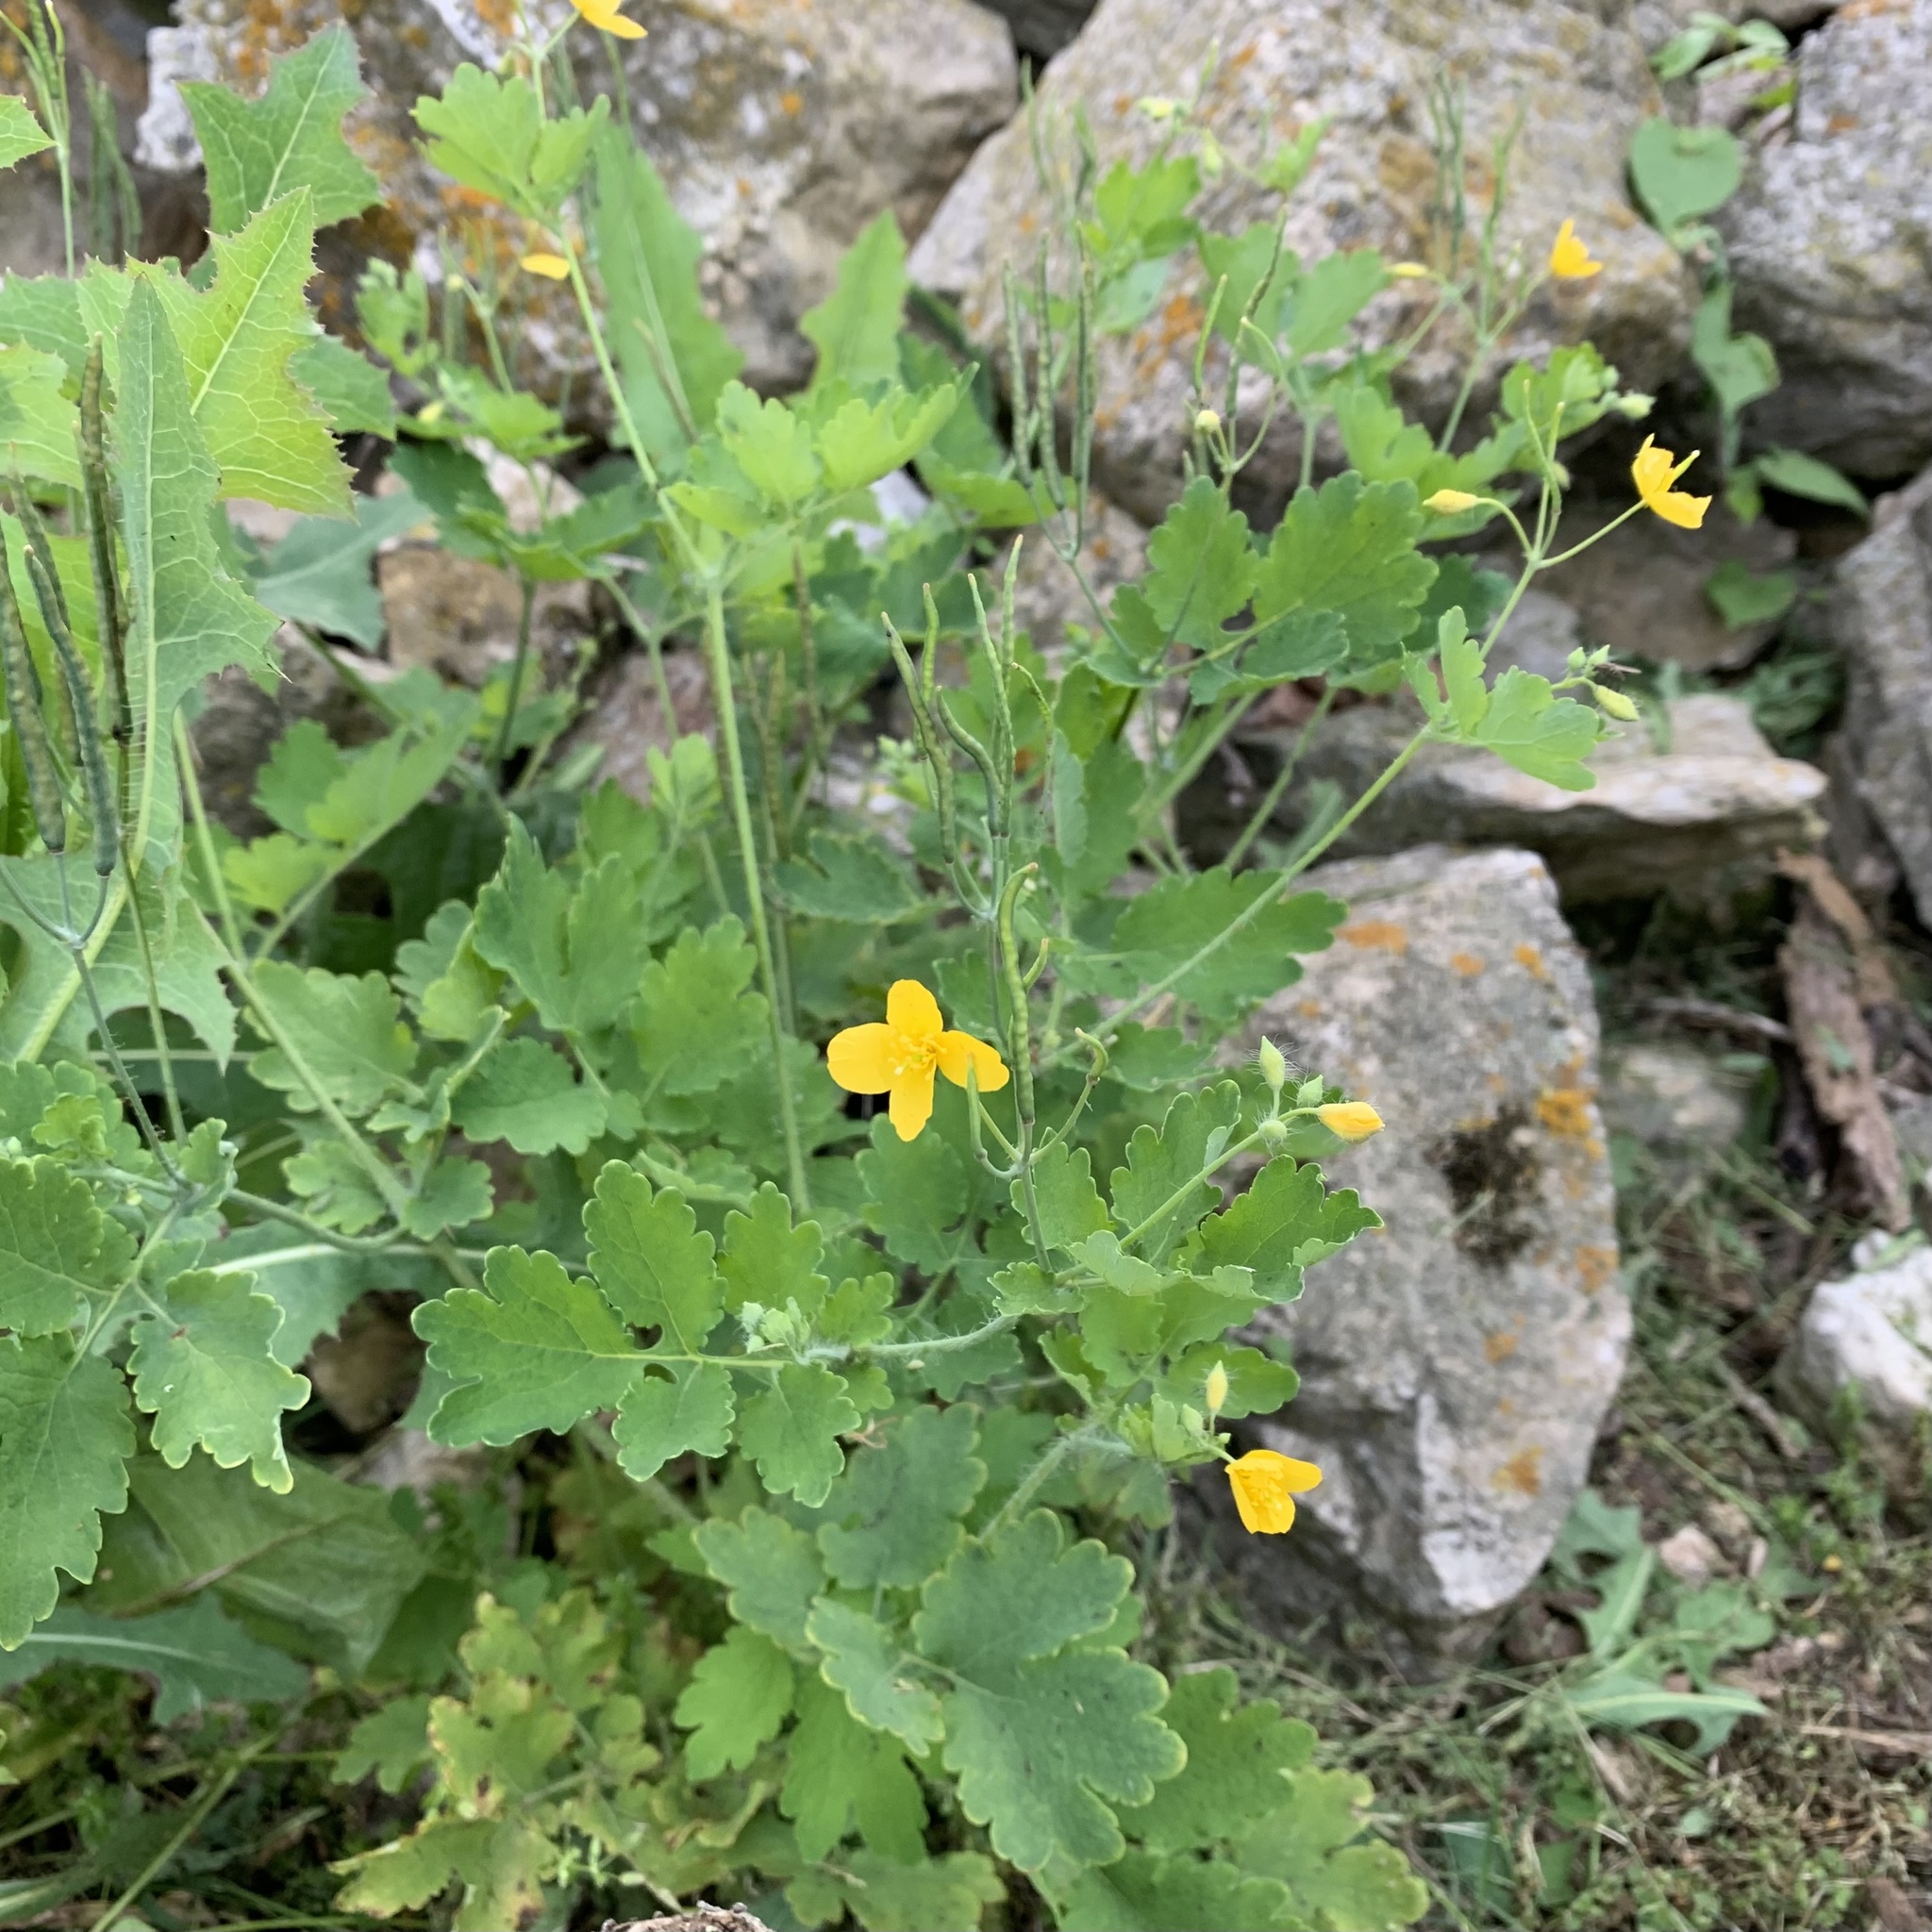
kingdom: Plantae
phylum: Tracheophyta
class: Magnoliopsida
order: Ranunculales
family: Papaveraceae
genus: Chelidonium
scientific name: Chelidonium majus
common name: Greater celandine
